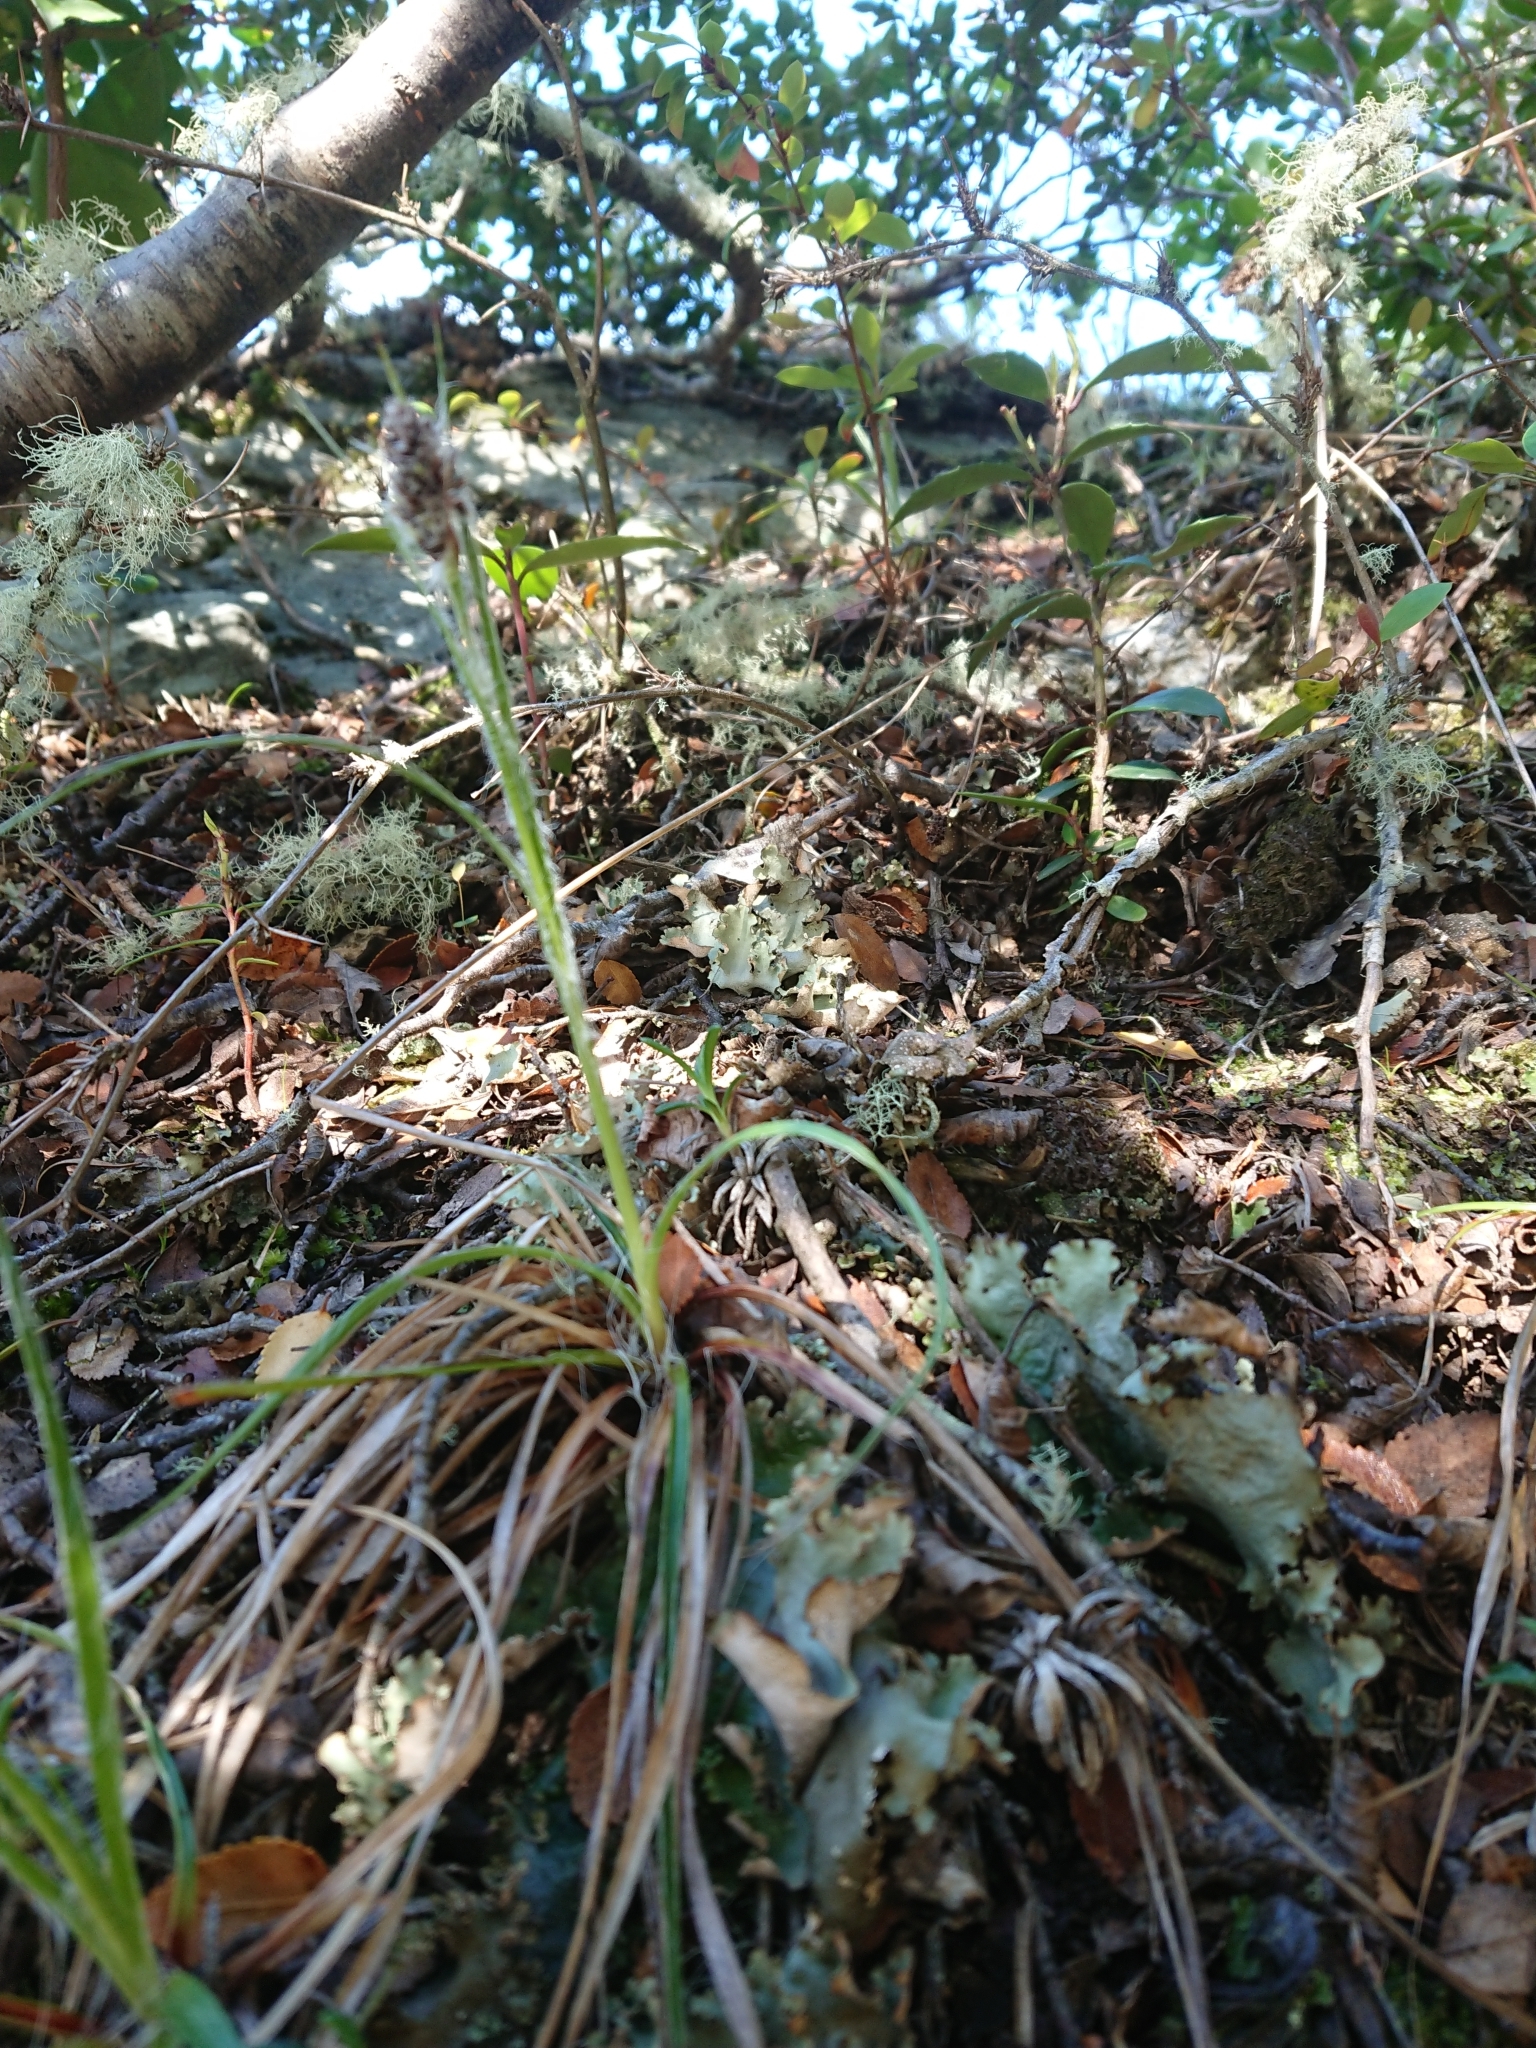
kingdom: Plantae
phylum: Tracheophyta
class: Magnoliopsida
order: Lamiales
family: Plantaginaceae
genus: Plantago
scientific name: Plantago maritima
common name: Sea plantain
